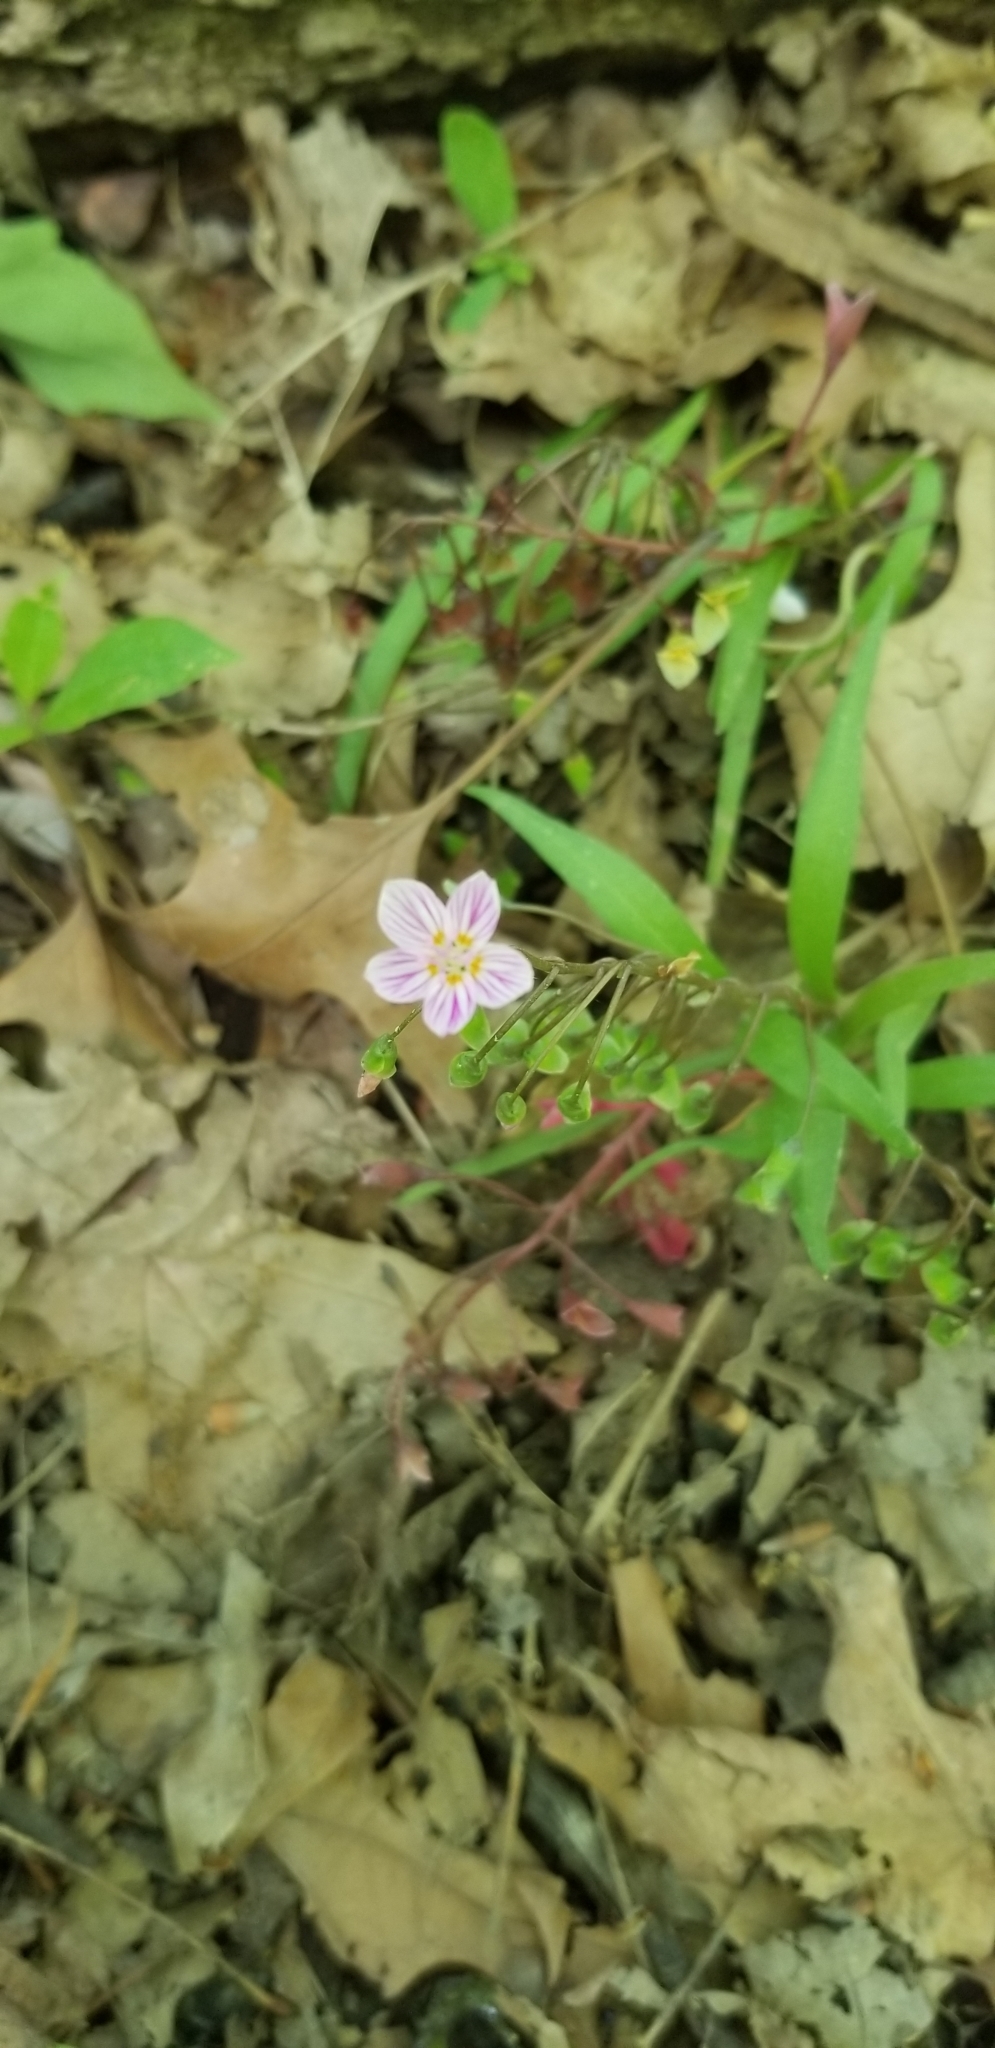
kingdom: Plantae
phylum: Tracheophyta
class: Magnoliopsida
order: Caryophyllales
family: Montiaceae
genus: Claytonia
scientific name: Claytonia virginica
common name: Virginia springbeauty
